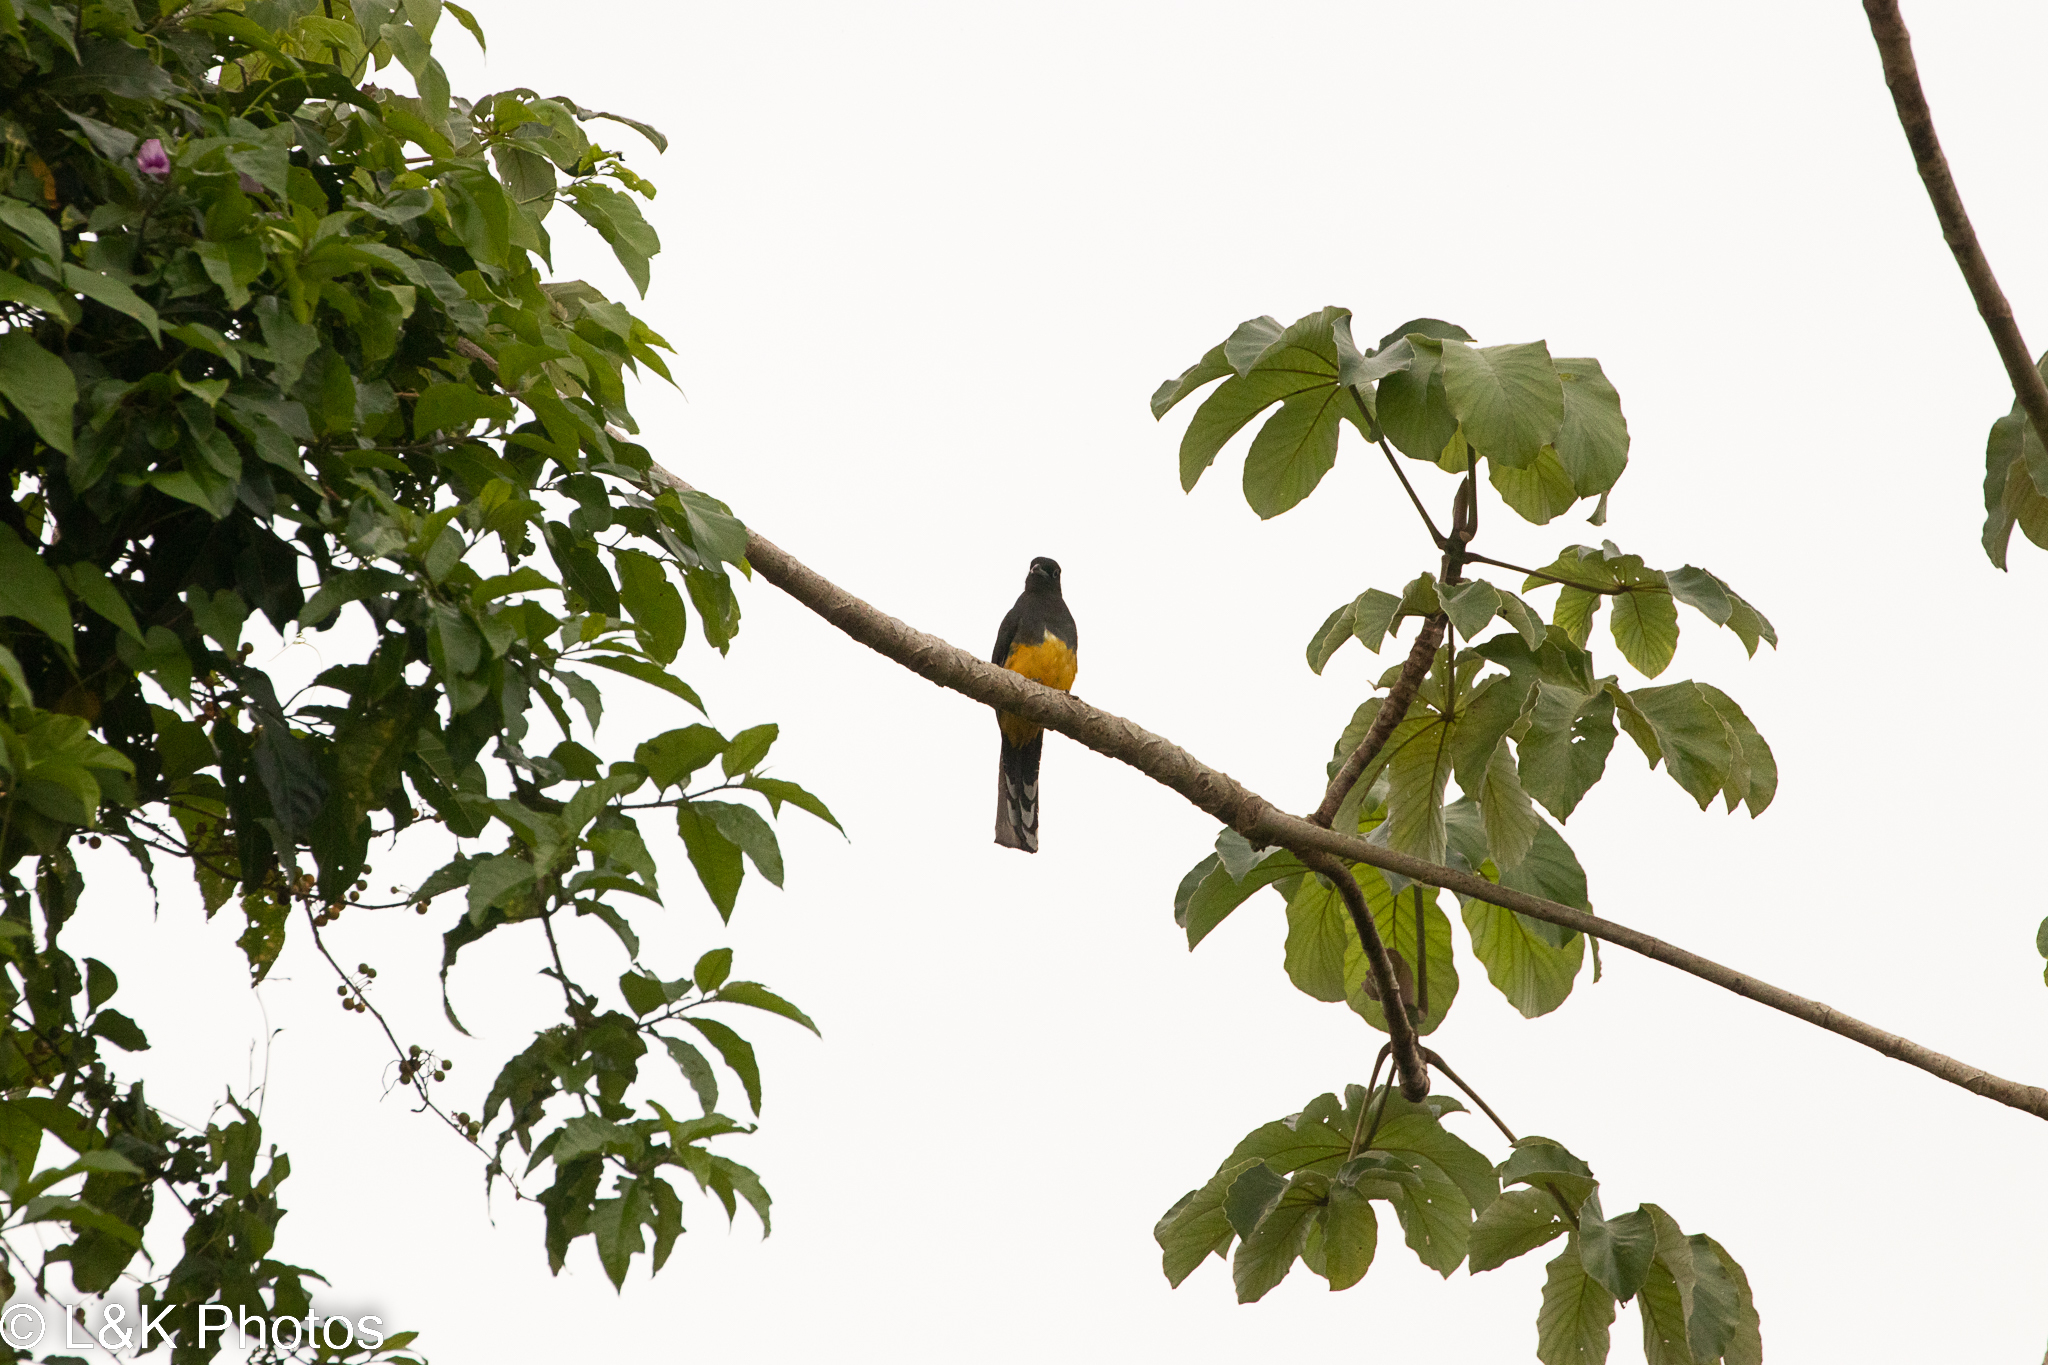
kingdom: Animalia
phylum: Chordata
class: Aves
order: Trogoniformes
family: Trogonidae
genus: Trogon
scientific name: Trogon melanocephalus
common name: Black-headed trogon
